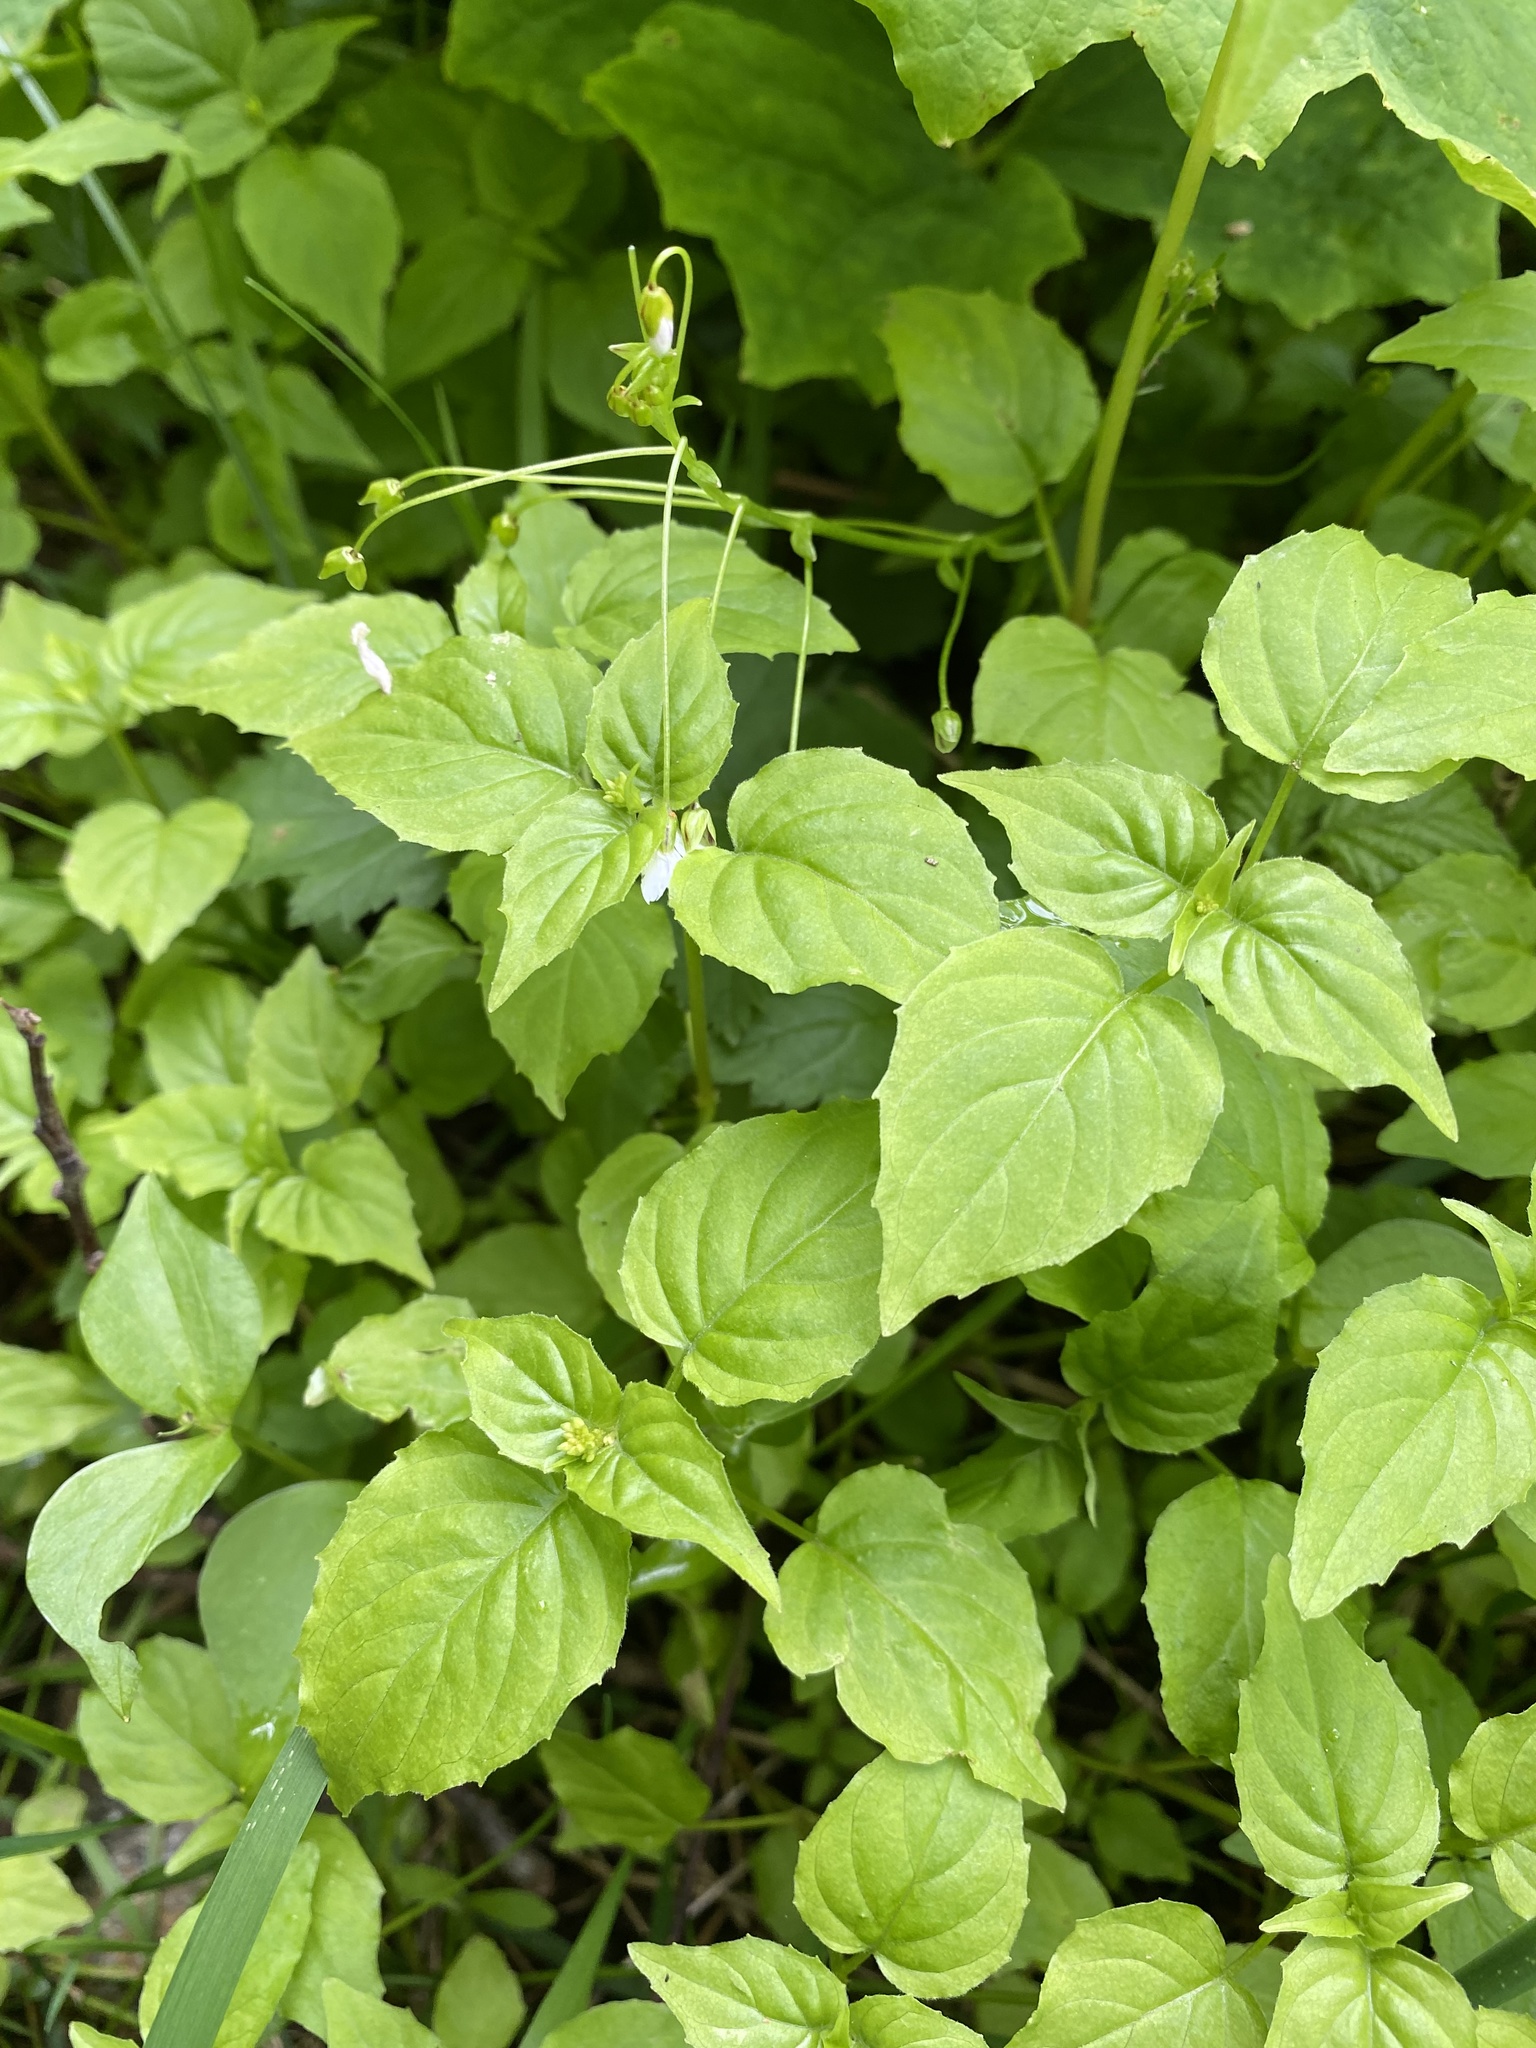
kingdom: Plantae
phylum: Tracheophyta
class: Magnoliopsida
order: Myrtales
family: Onagraceae
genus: Circaea
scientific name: Circaea alpina
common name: Alpine enchanter's-nightshade
